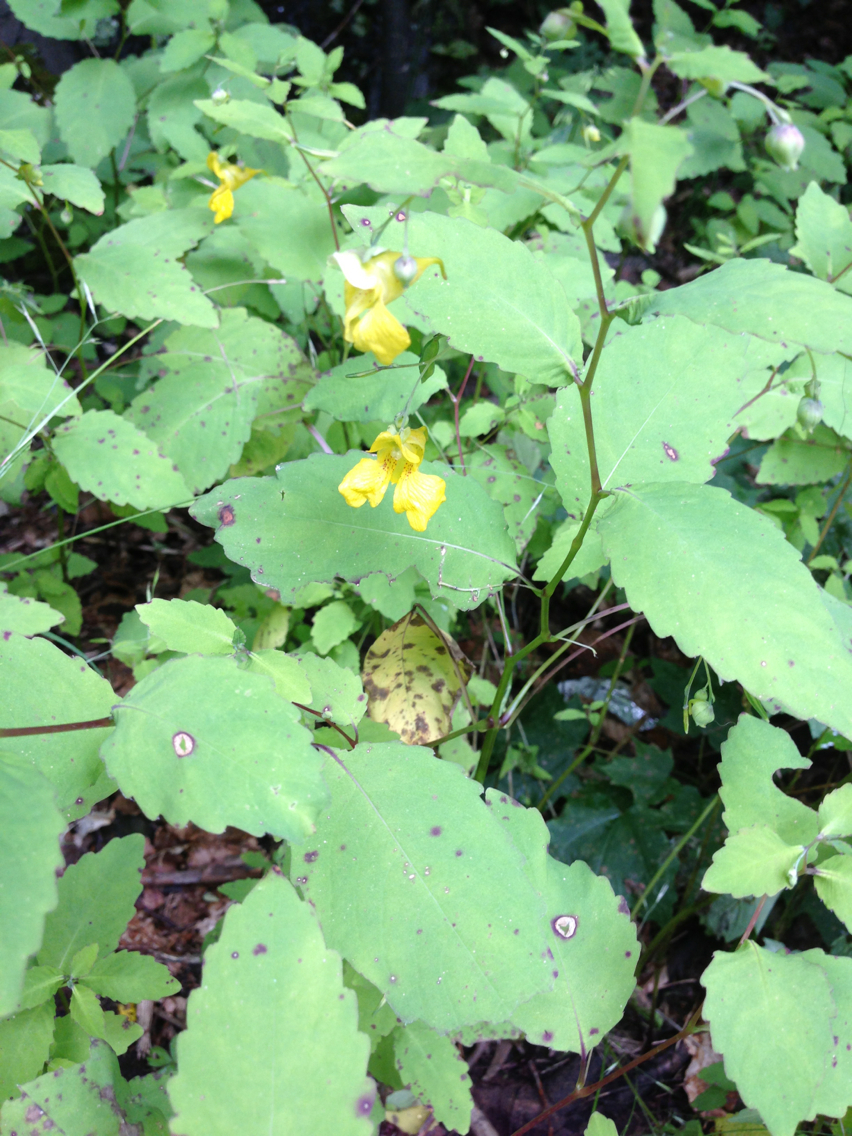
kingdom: Plantae
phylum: Tracheophyta
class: Magnoliopsida
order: Ericales
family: Balsaminaceae
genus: Impatiens
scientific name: Impatiens pallida
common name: Pale snapweed
